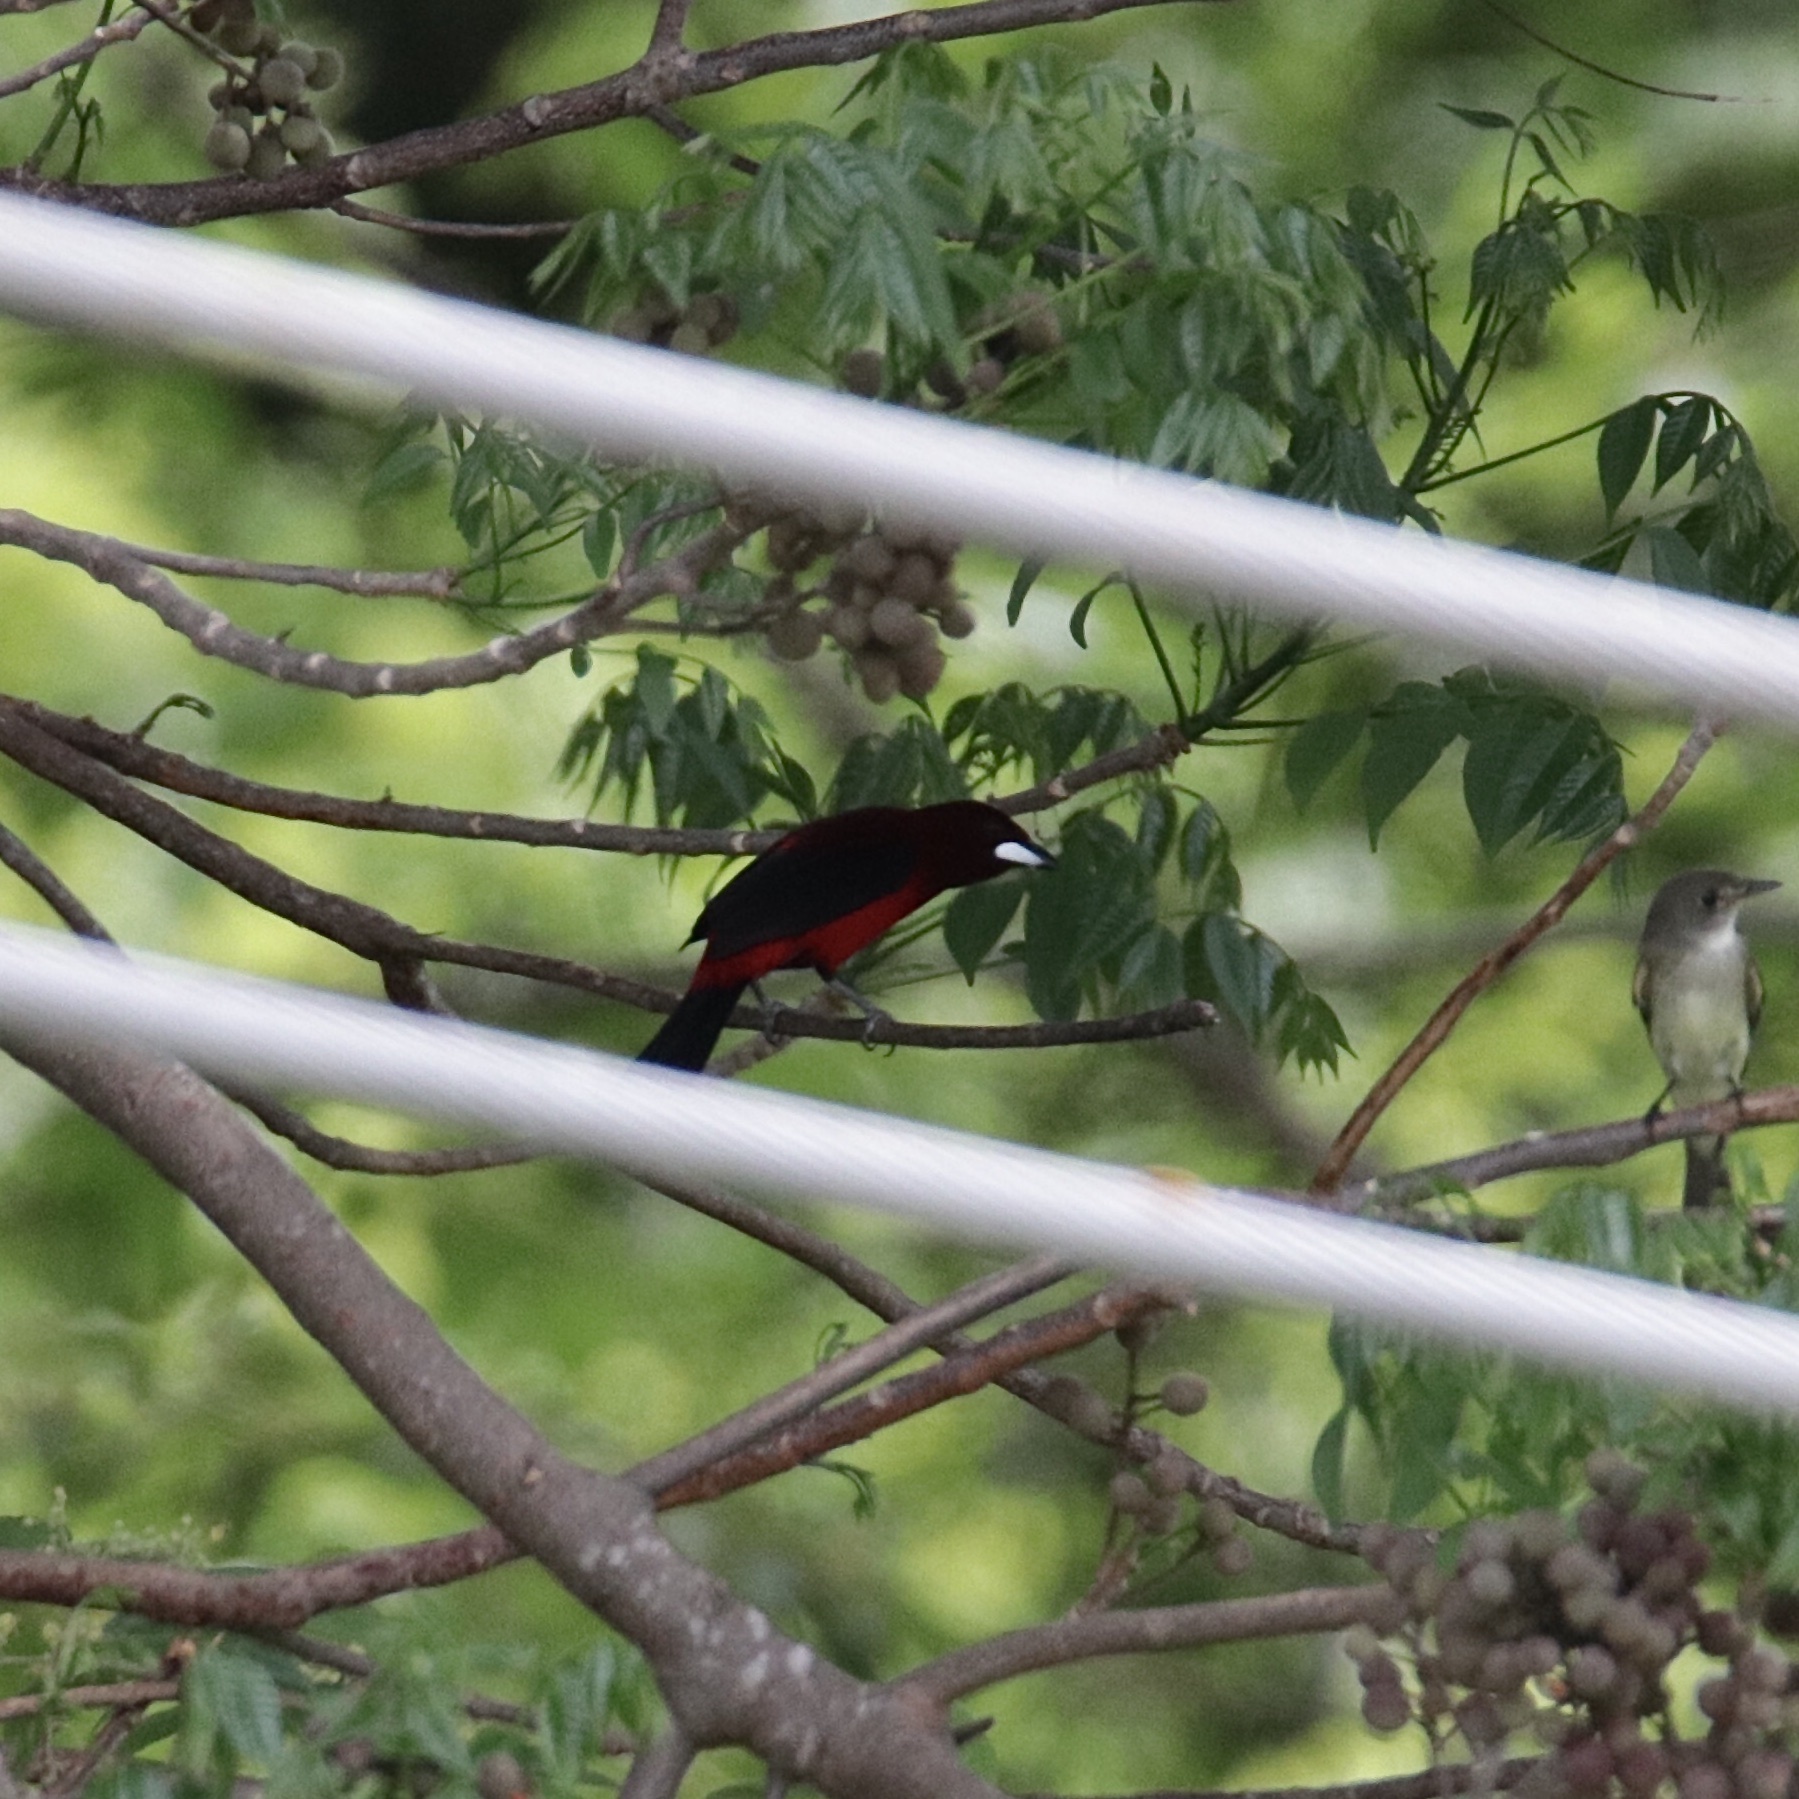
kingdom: Animalia
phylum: Chordata
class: Aves
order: Passeriformes
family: Thraupidae
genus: Ramphocelus
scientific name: Ramphocelus dimidiatus
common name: Crimson-backed tanager
